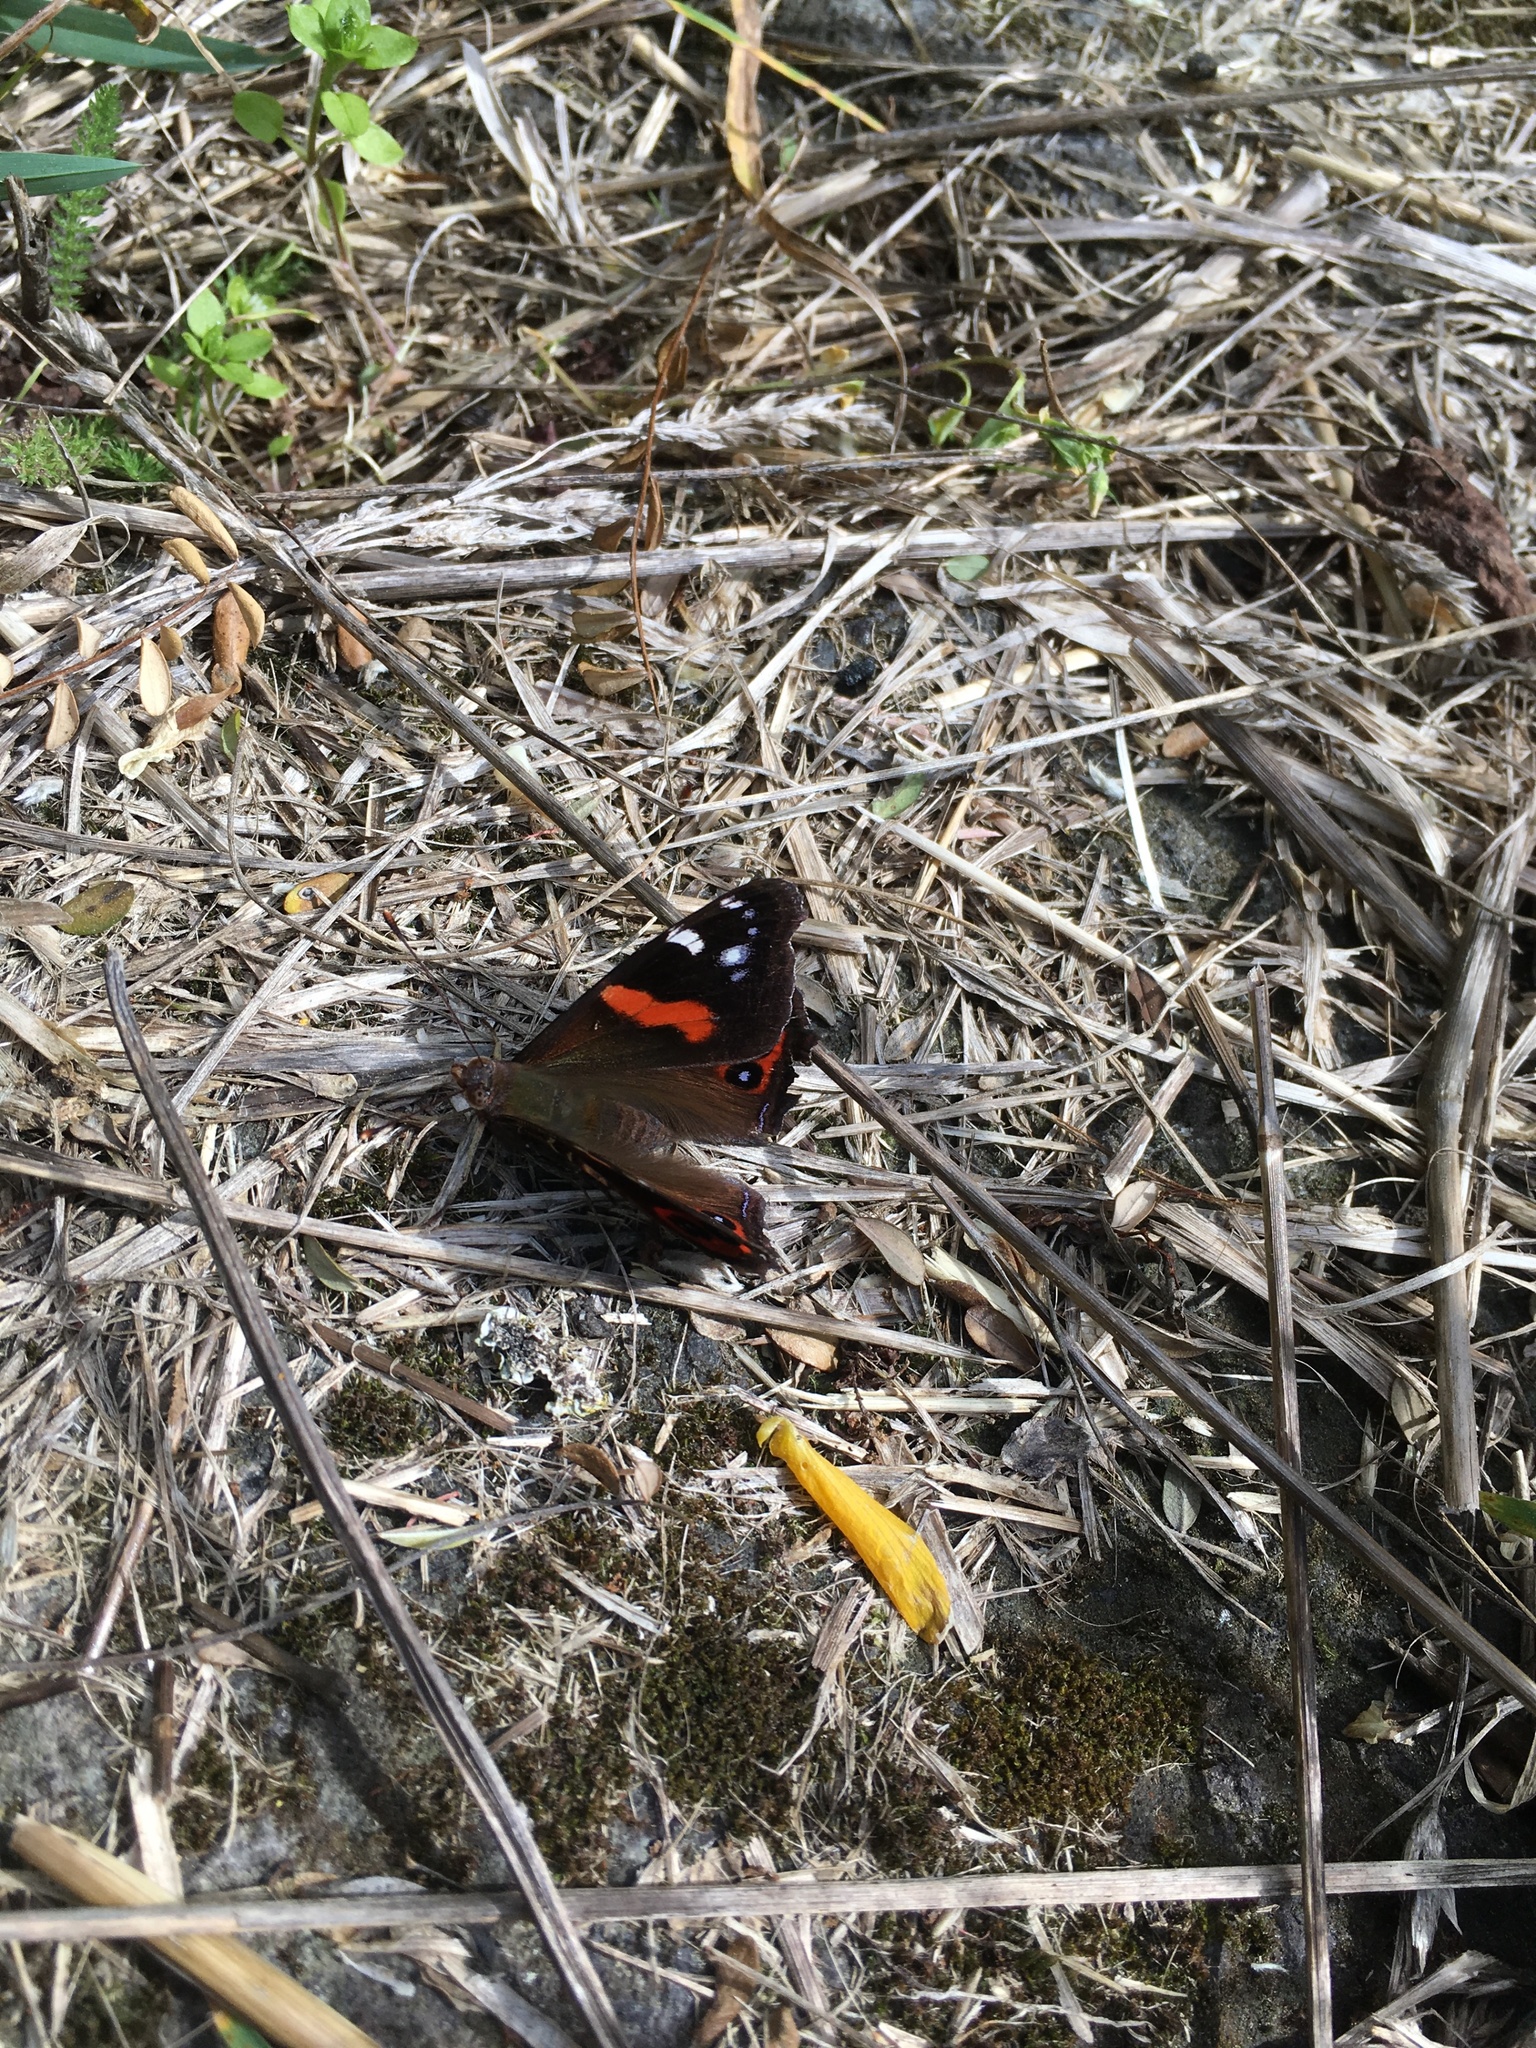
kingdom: Animalia
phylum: Arthropoda
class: Insecta
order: Lepidoptera
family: Nymphalidae
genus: Vanessa
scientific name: Vanessa gonerilla
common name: New zealand red admiral
